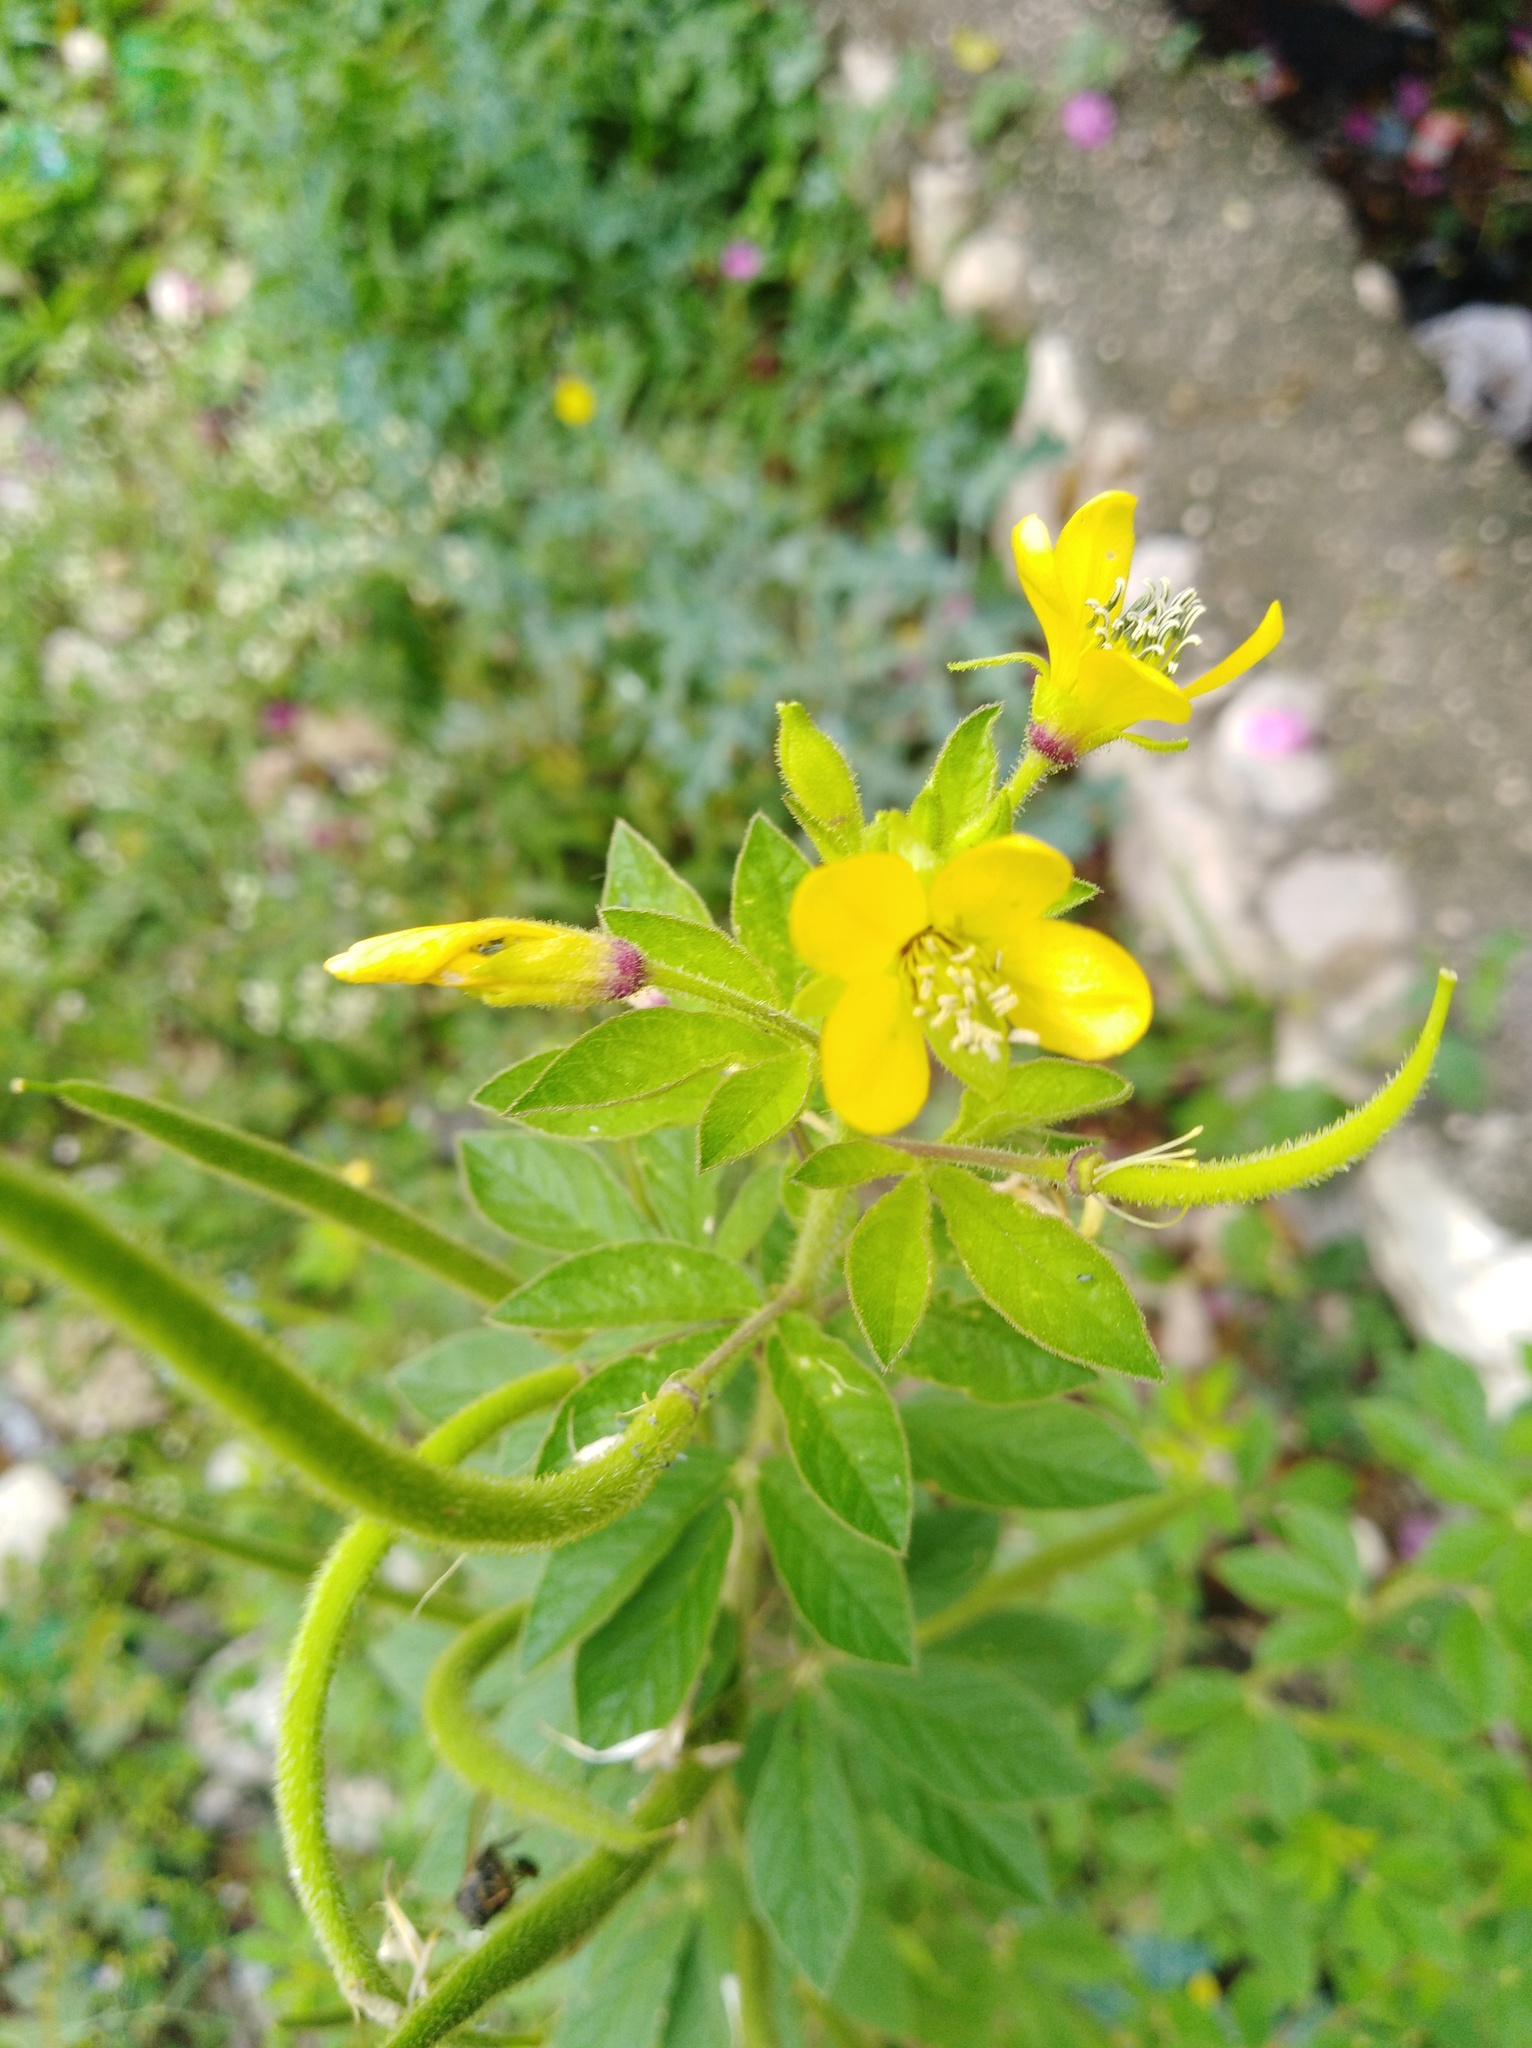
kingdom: Plantae
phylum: Tracheophyta
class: Magnoliopsida
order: Brassicales
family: Cleomaceae
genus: Arivela
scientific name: Arivela viscosa
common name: Asian spiderflower
